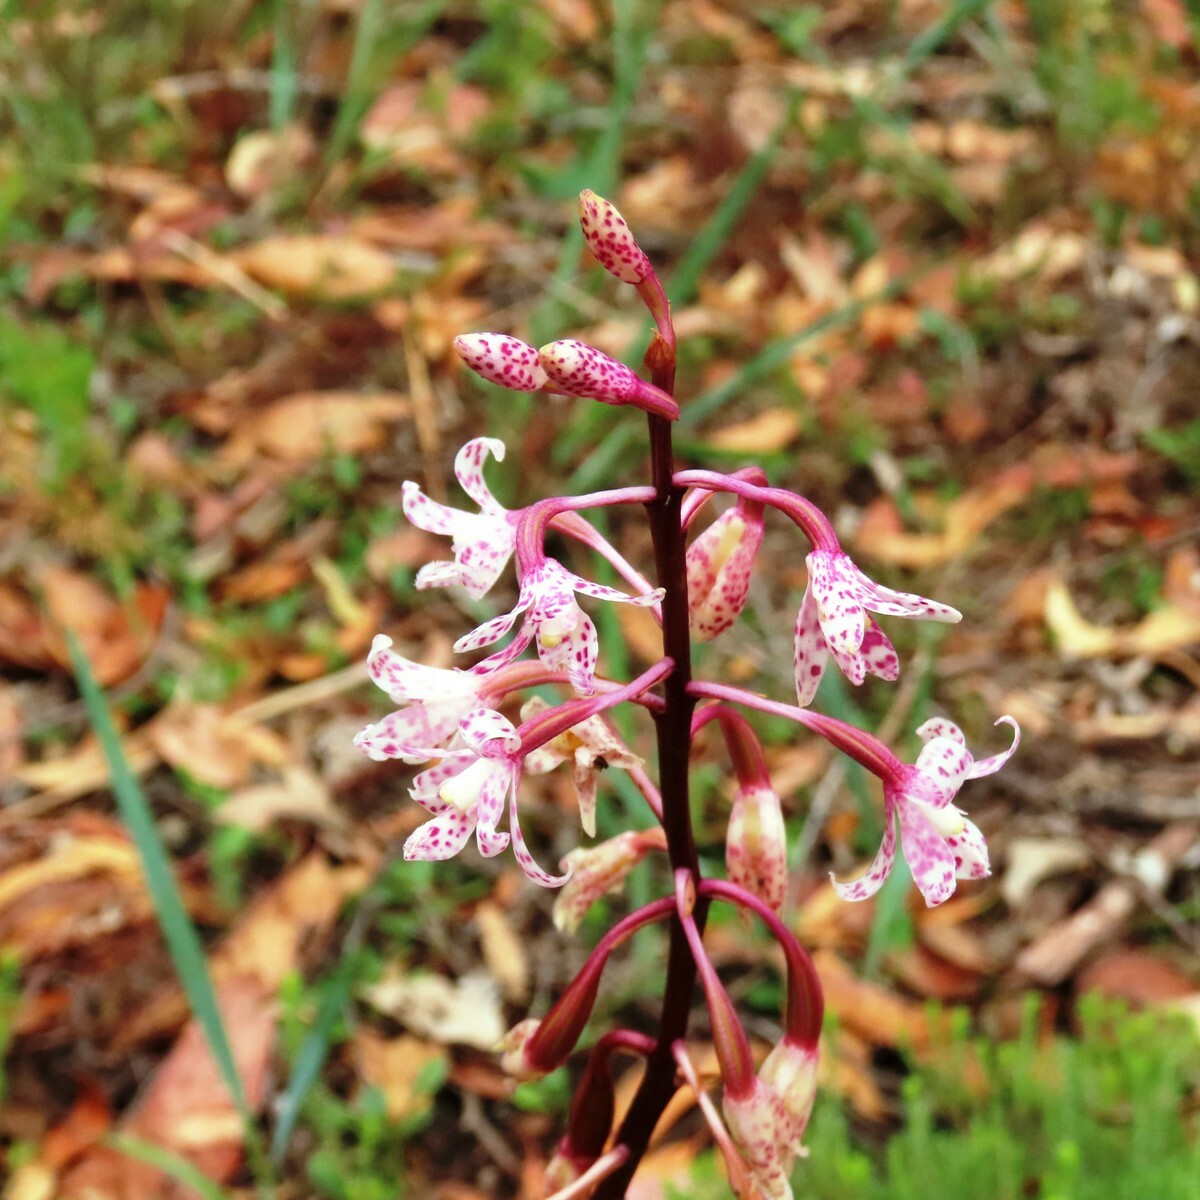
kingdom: Plantae
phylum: Tracheophyta
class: Liliopsida
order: Asparagales
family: Orchidaceae
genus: Dipodium
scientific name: Dipodium pardalinum
